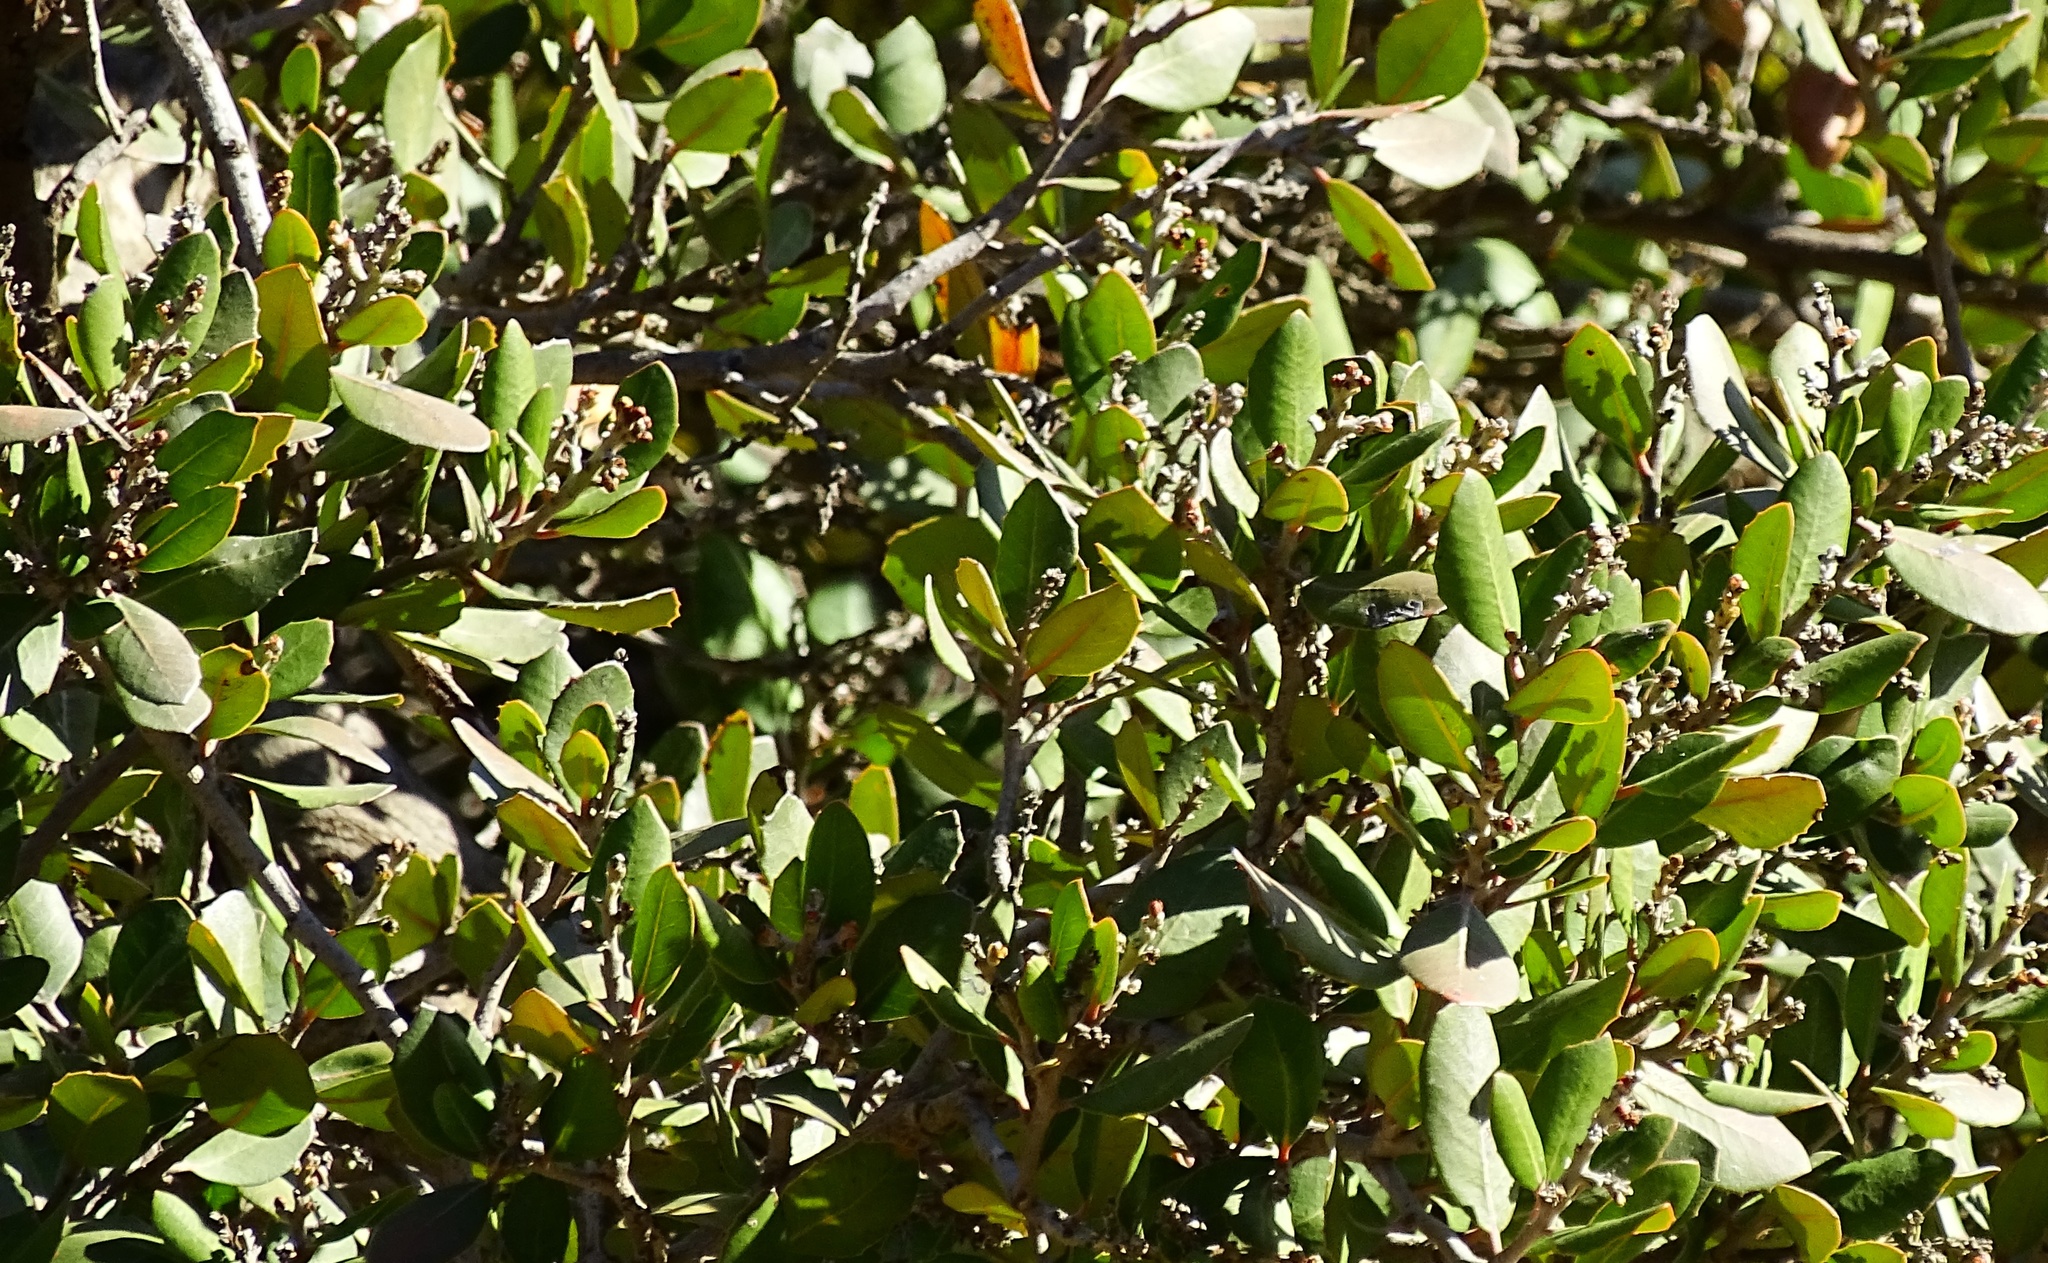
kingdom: Plantae
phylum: Tracheophyta
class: Magnoliopsida
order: Sapindales
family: Anacardiaceae
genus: Rhus
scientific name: Rhus integrifolia
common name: Lemonade sumac
